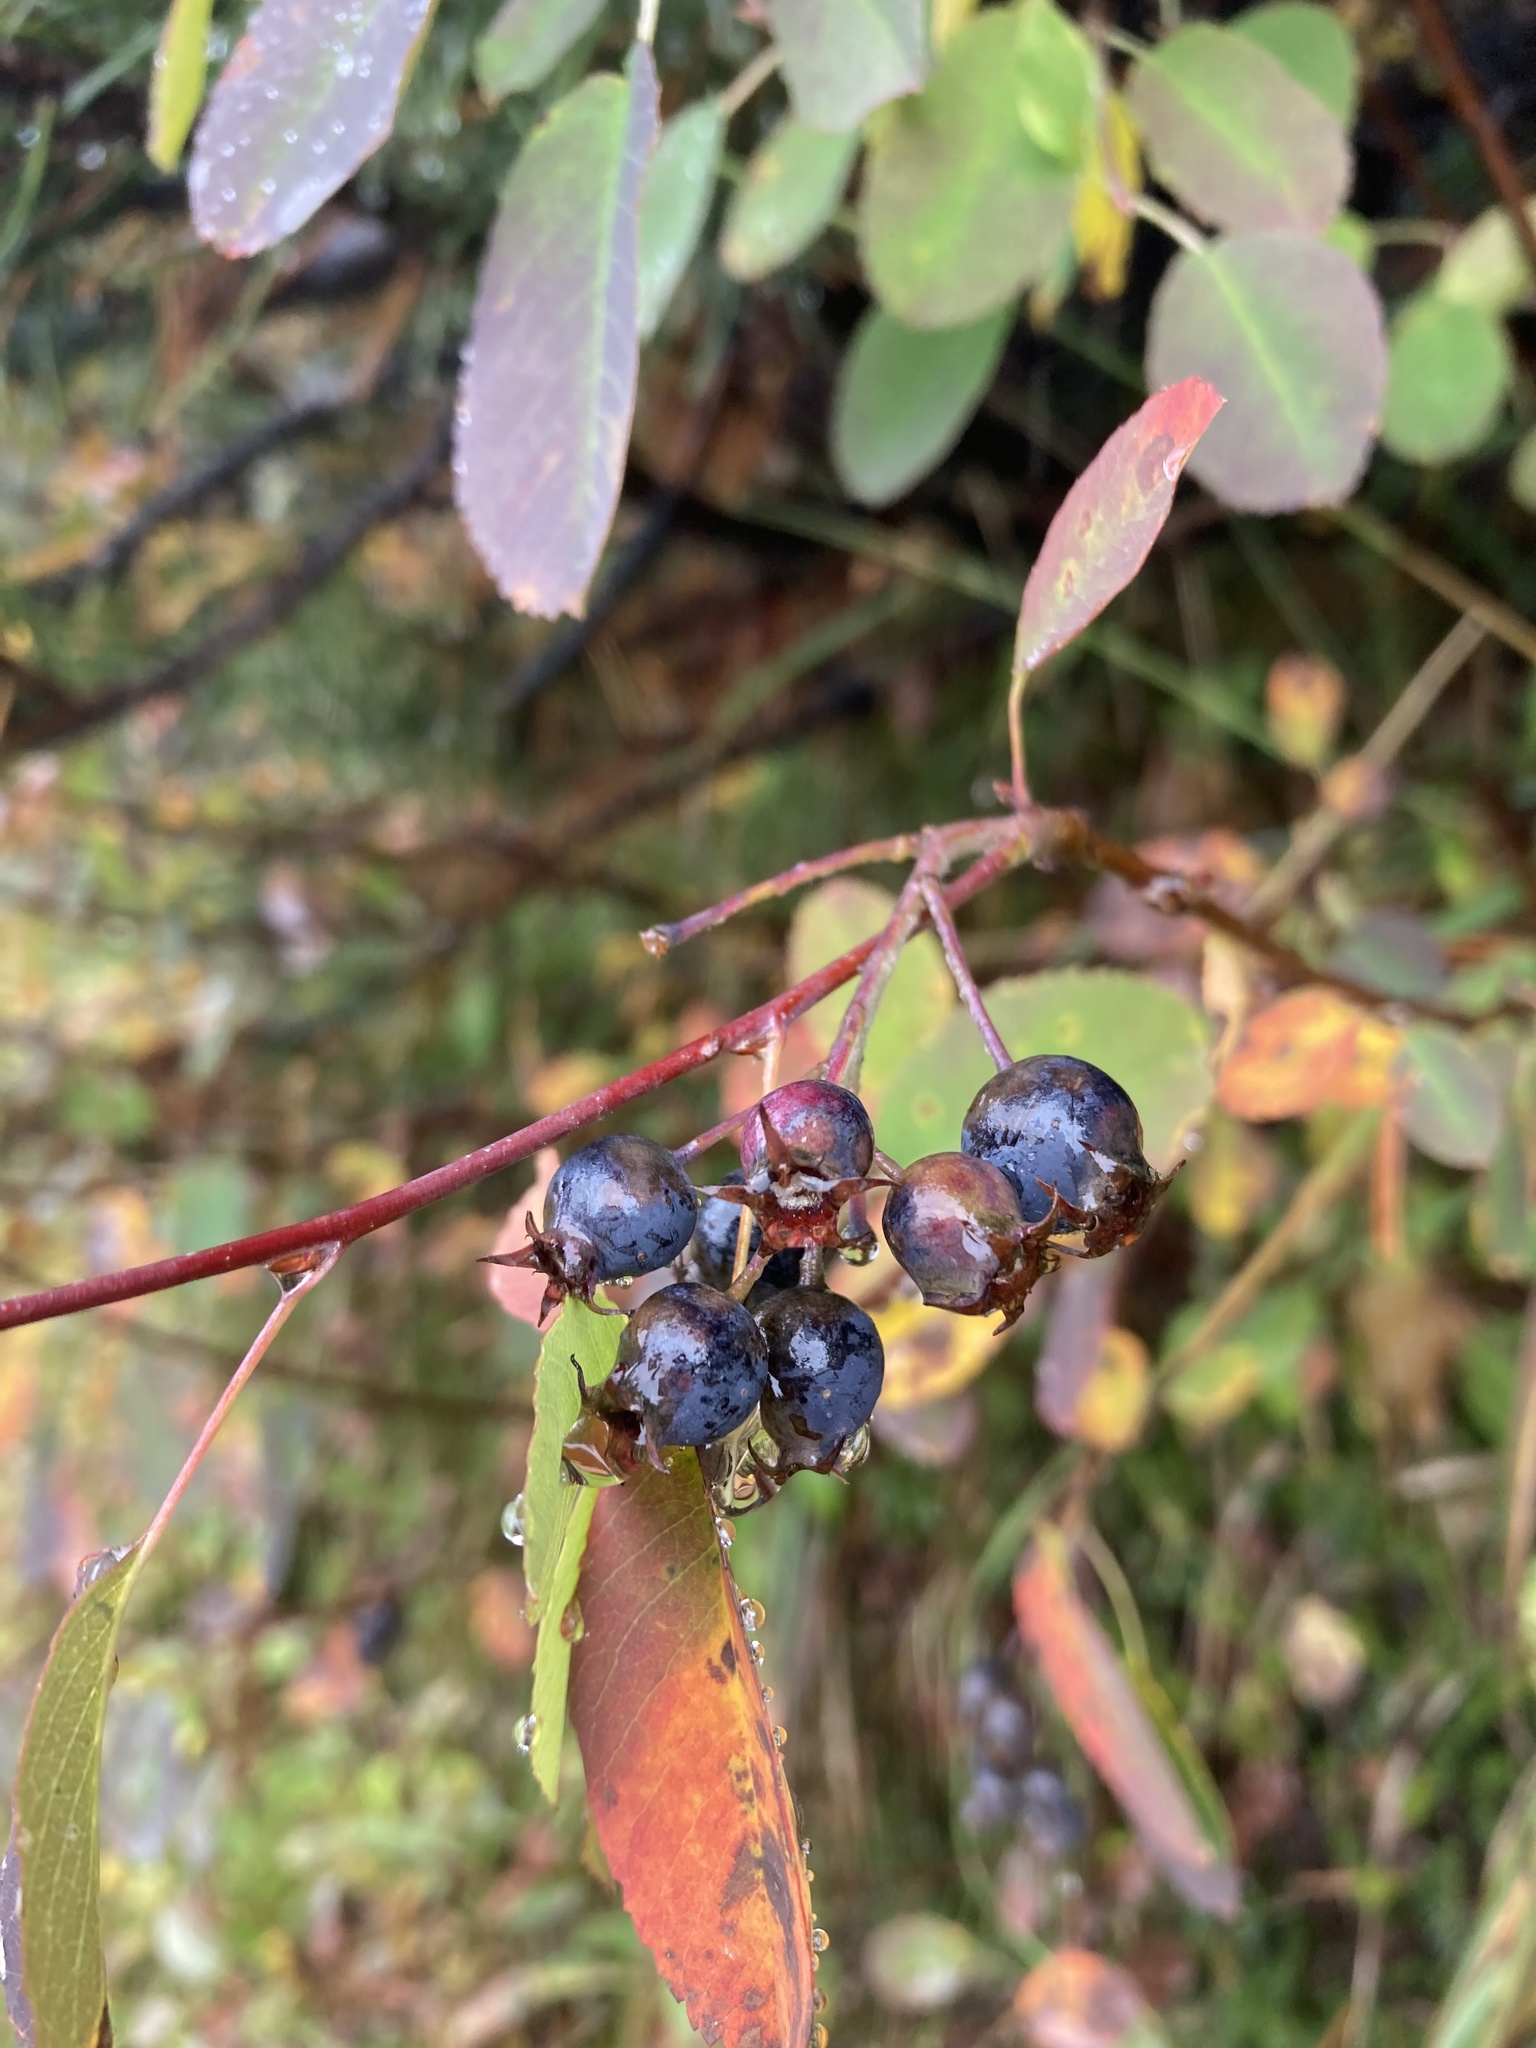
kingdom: Plantae
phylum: Tracheophyta
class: Magnoliopsida
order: Rosales
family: Rosaceae
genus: Amelanchier
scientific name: Amelanchier ovalis
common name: Serviceberry
